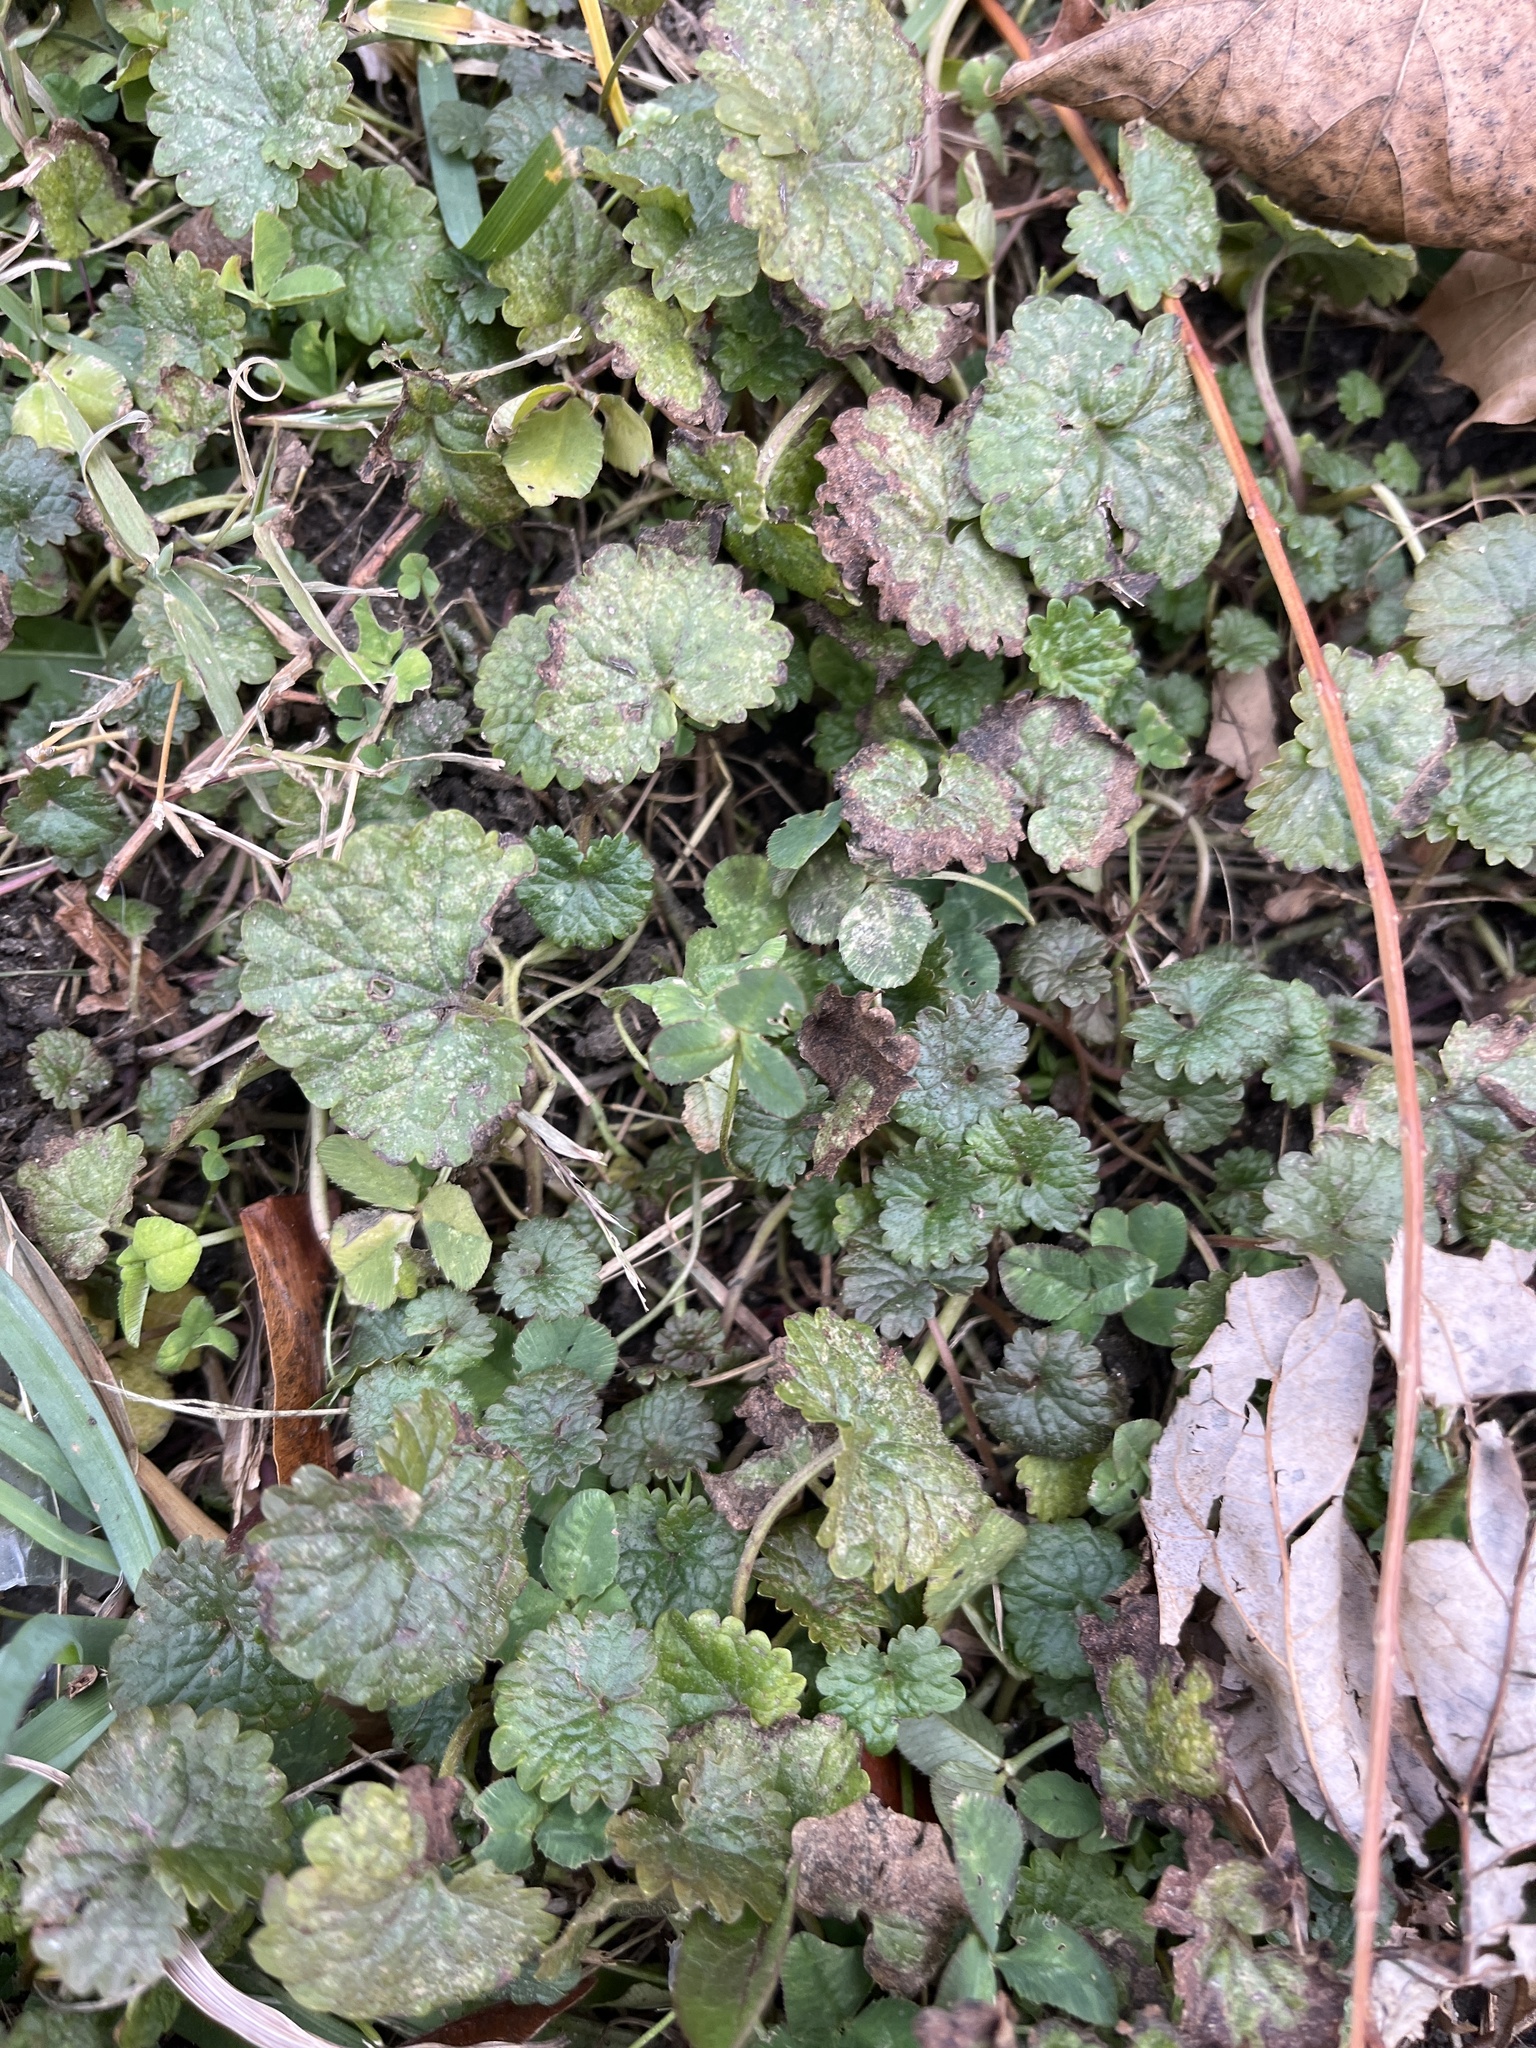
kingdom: Plantae
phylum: Tracheophyta
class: Magnoliopsida
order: Lamiales
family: Lamiaceae
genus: Glechoma
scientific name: Glechoma hederacea
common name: Ground ivy
